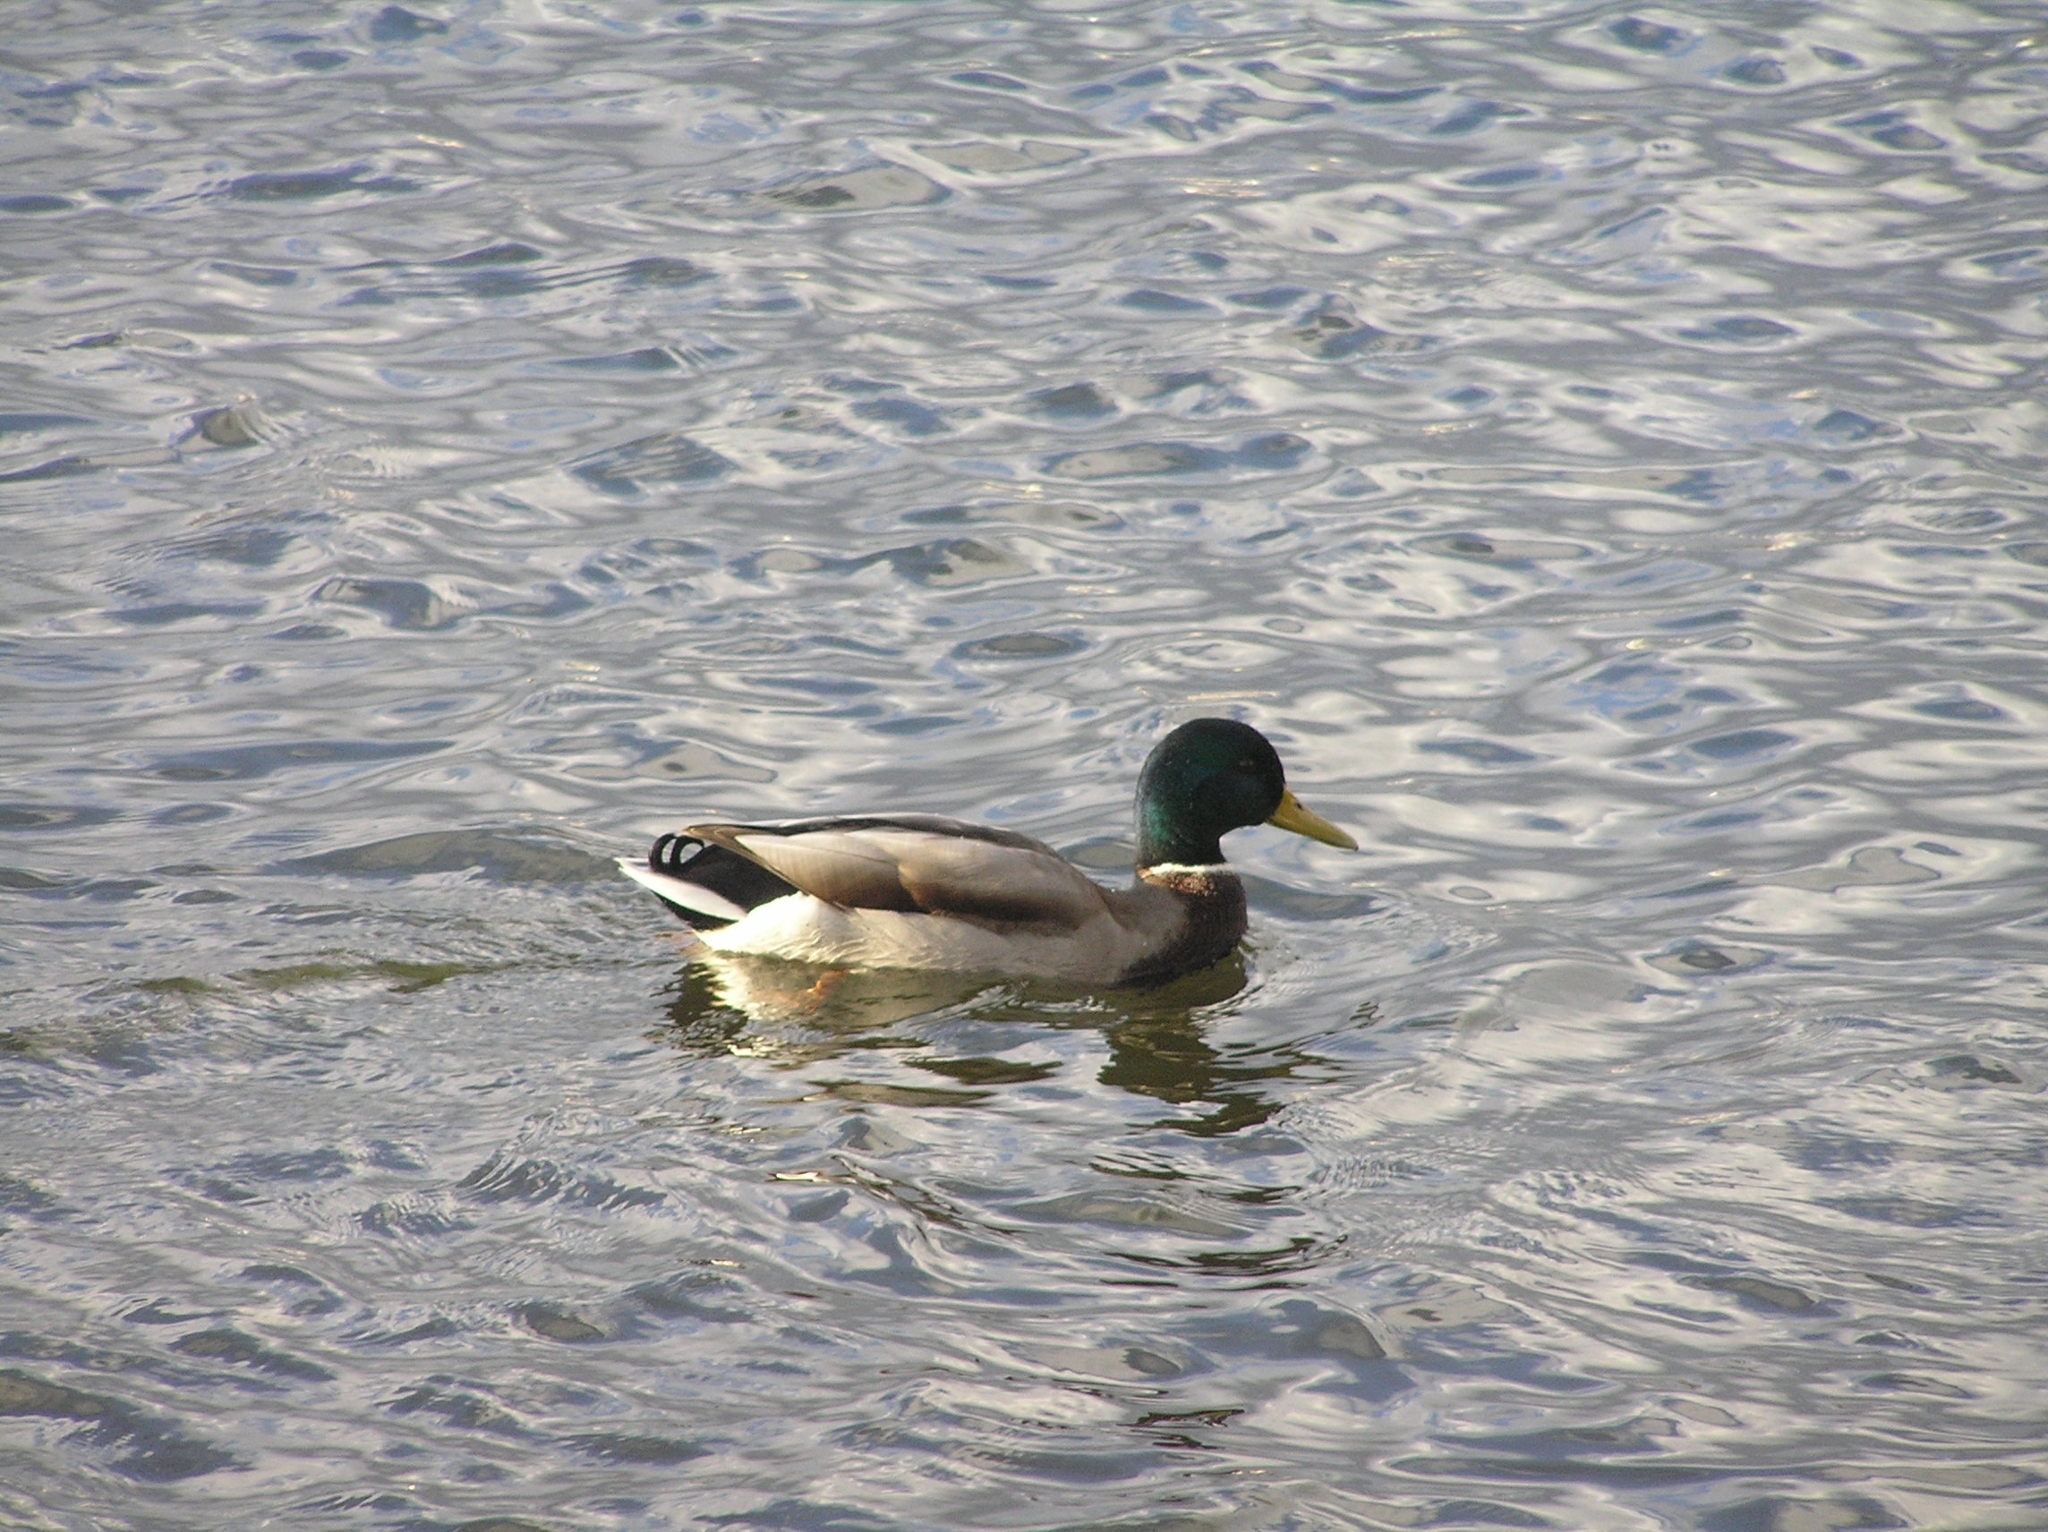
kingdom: Animalia
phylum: Chordata
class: Aves
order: Anseriformes
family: Anatidae
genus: Anas
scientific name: Anas platyrhynchos
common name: Mallard
